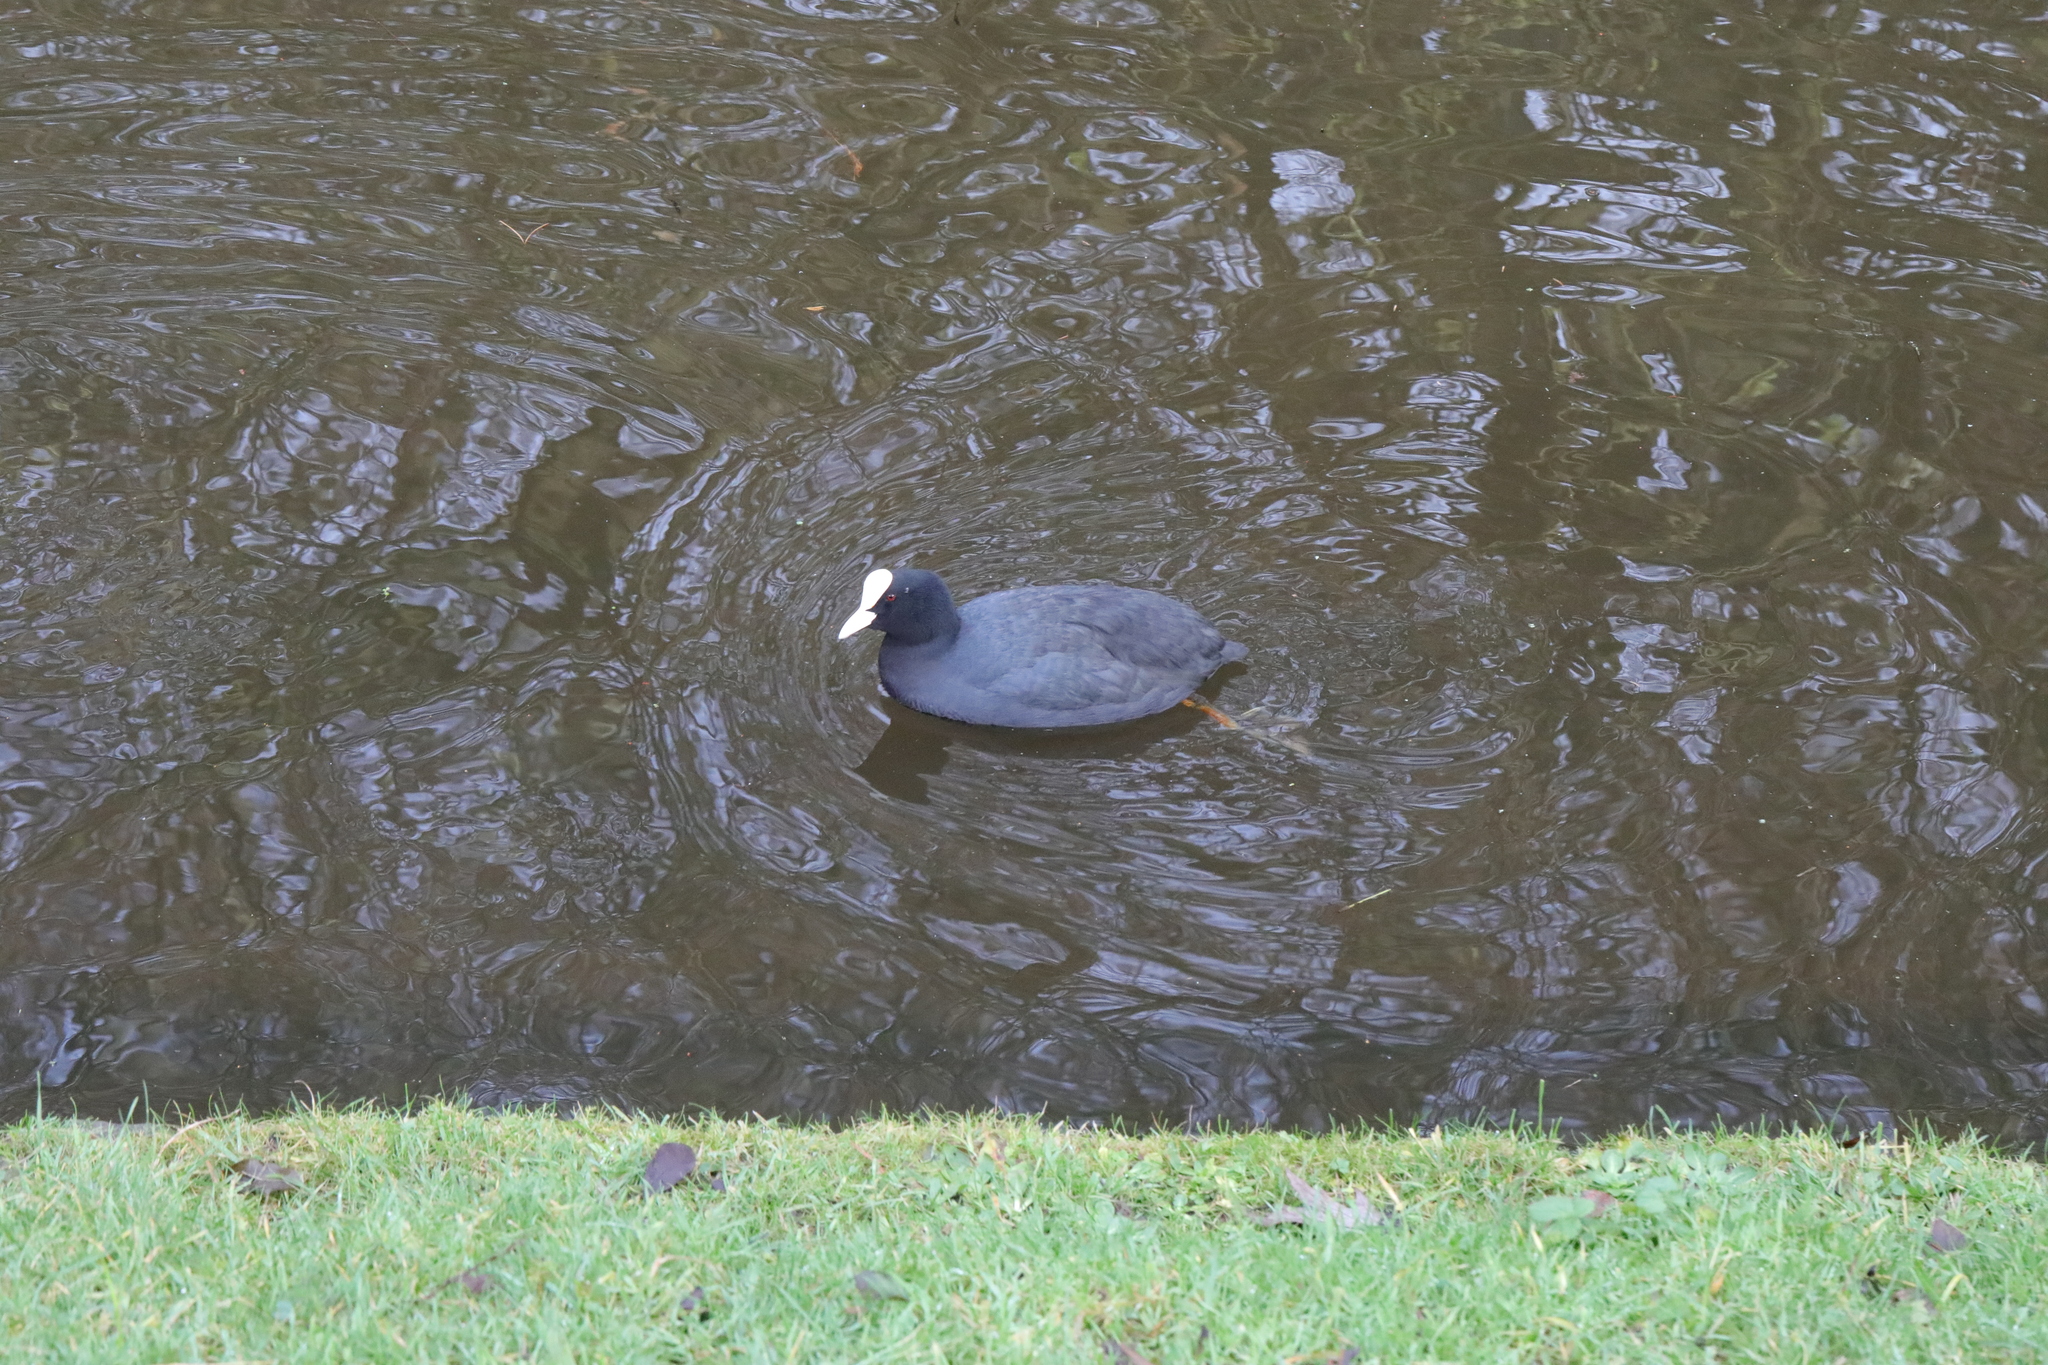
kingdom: Animalia
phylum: Chordata
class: Aves
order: Gruiformes
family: Rallidae
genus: Fulica
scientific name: Fulica atra
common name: Eurasian coot
